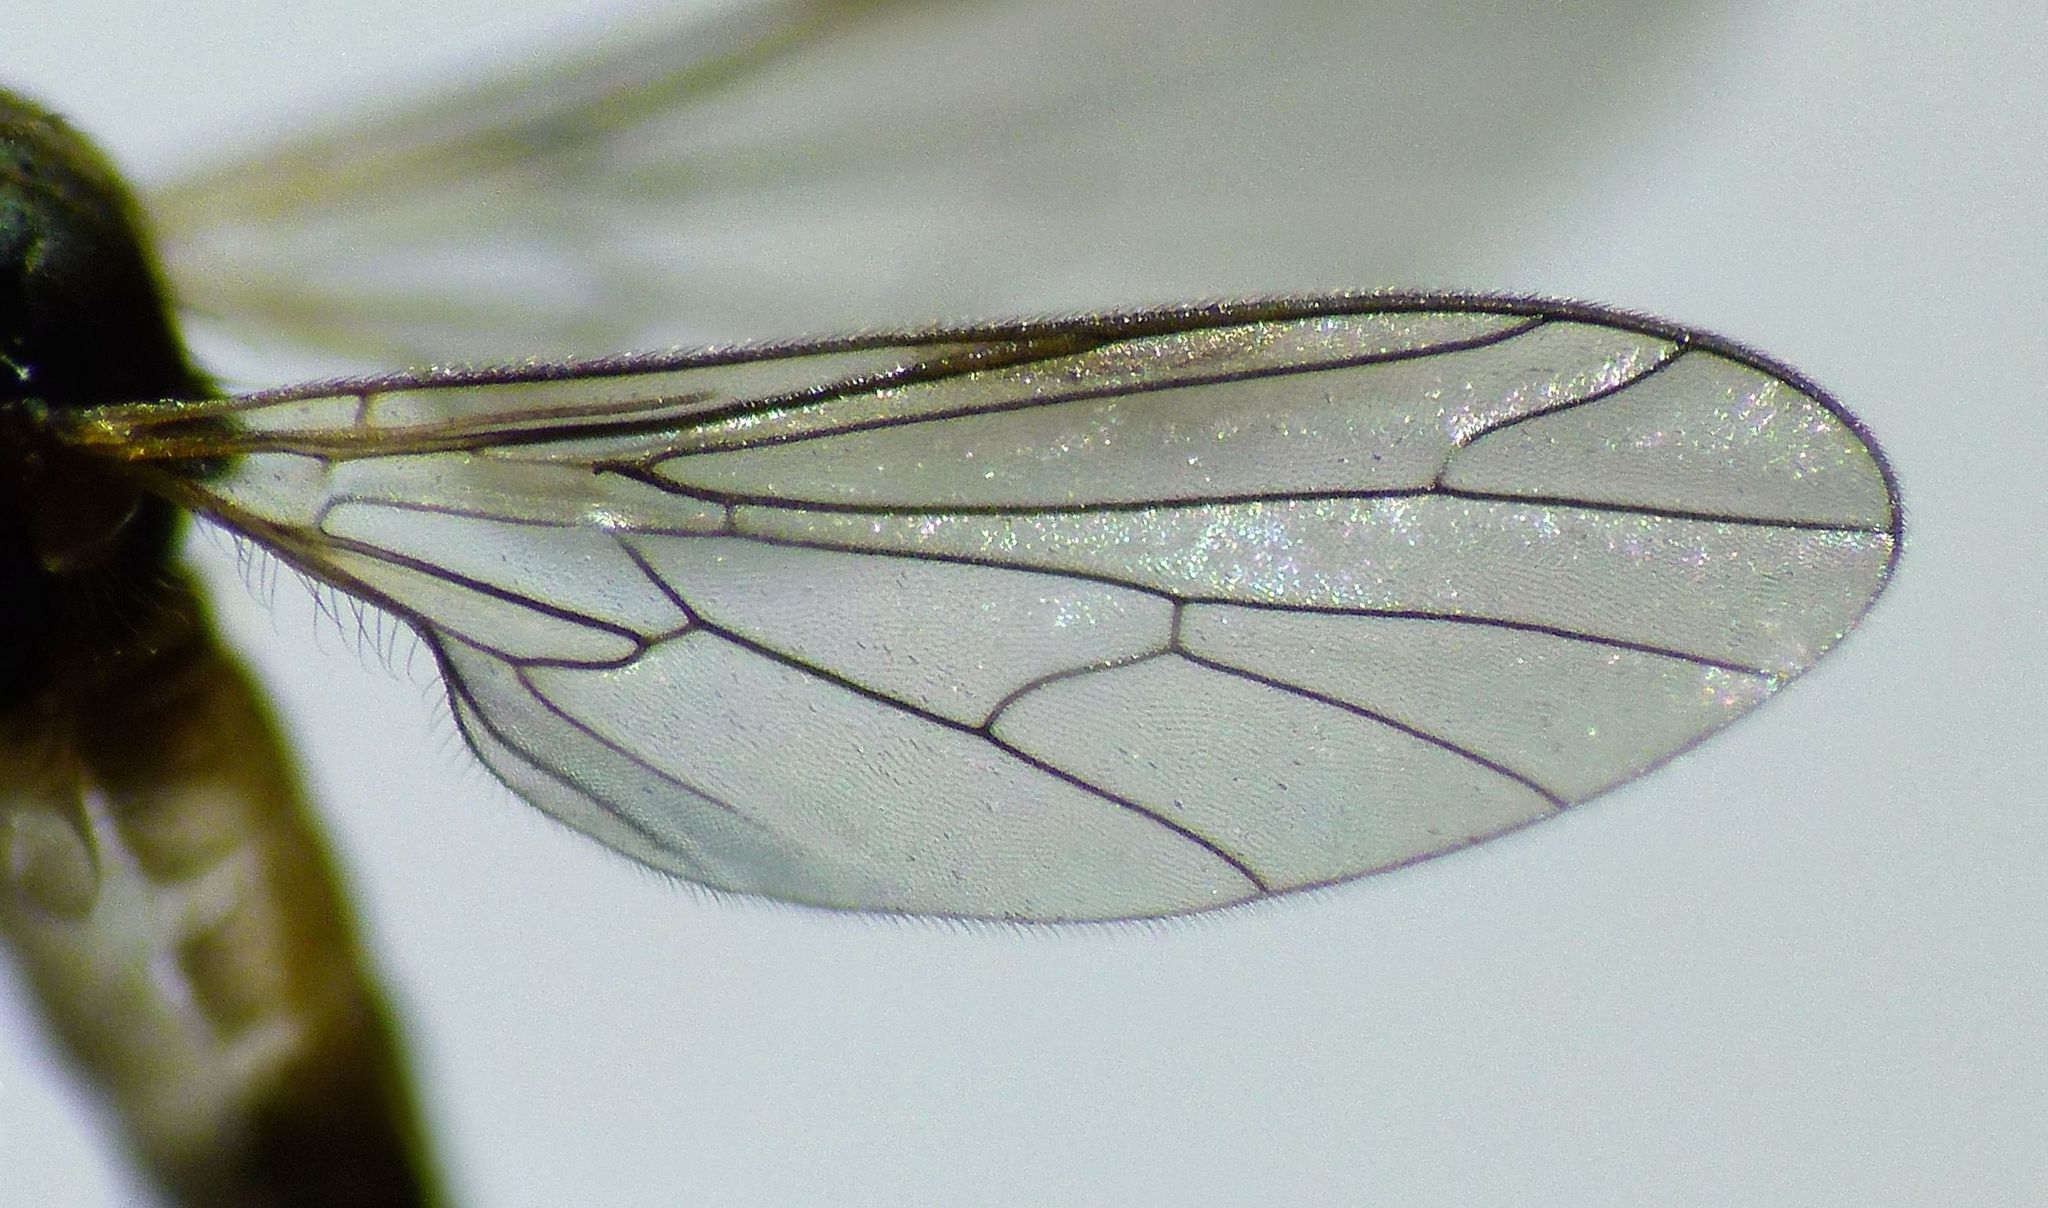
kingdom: Animalia
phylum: Arthropoda
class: Insecta
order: Diptera
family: Empididae
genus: Hilarempis
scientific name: Hilarempis ochrozona
